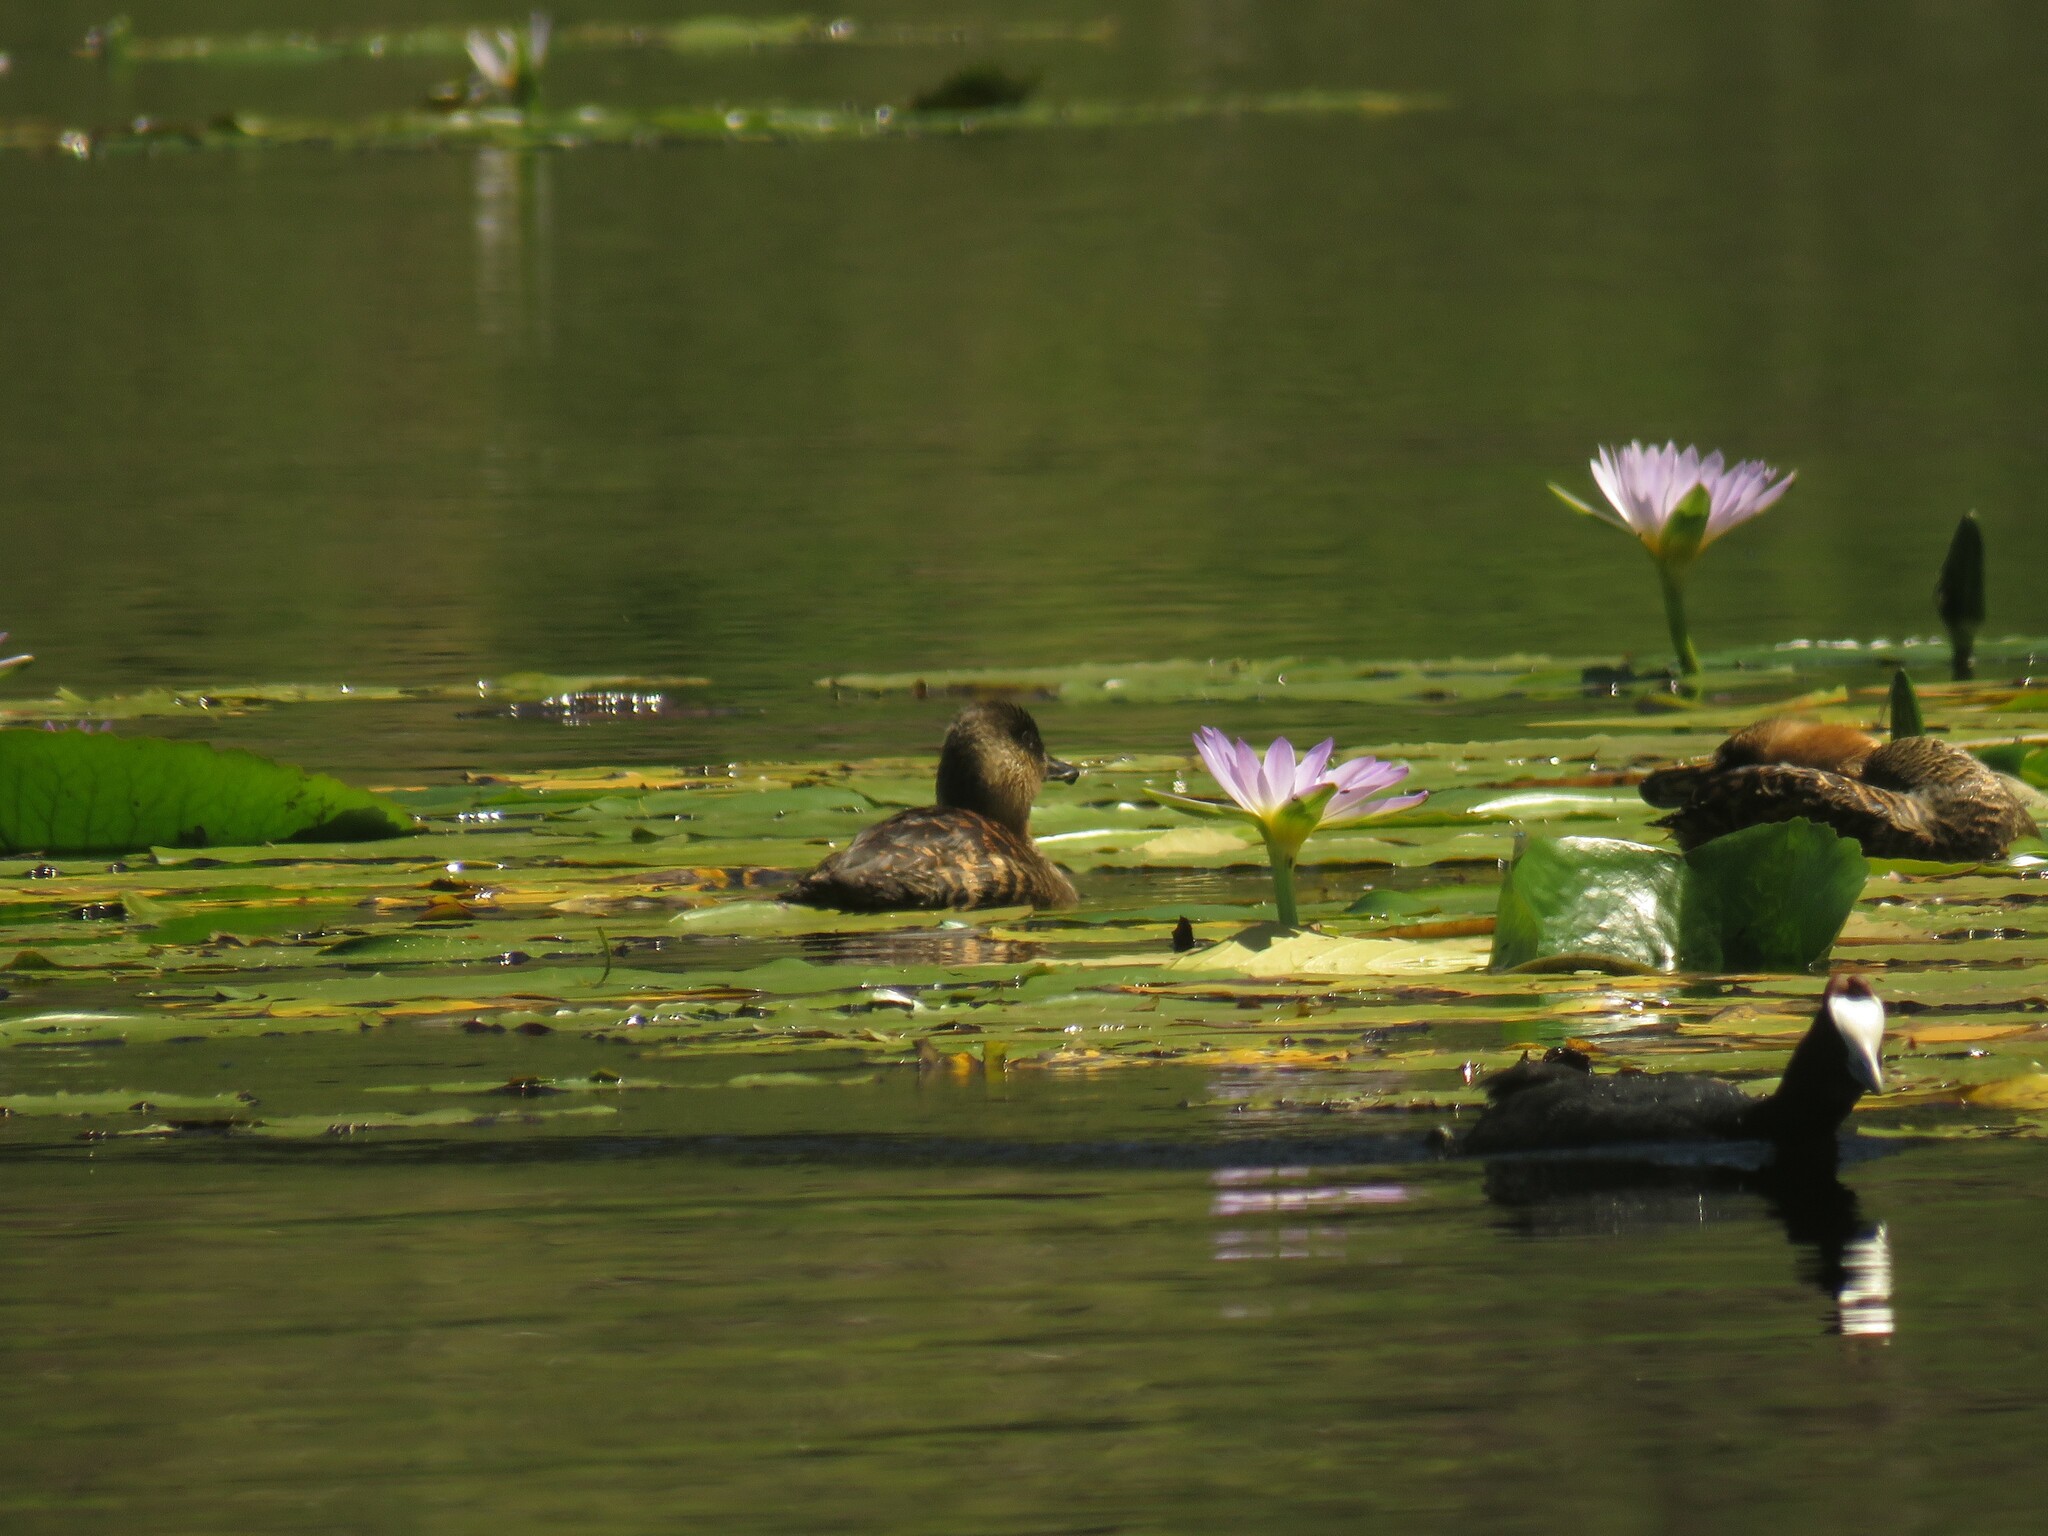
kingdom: Animalia
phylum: Chordata
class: Aves
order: Anseriformes
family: Anatidae
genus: Thalassornis
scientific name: Thalassornis leuconotus
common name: White-backed duck
